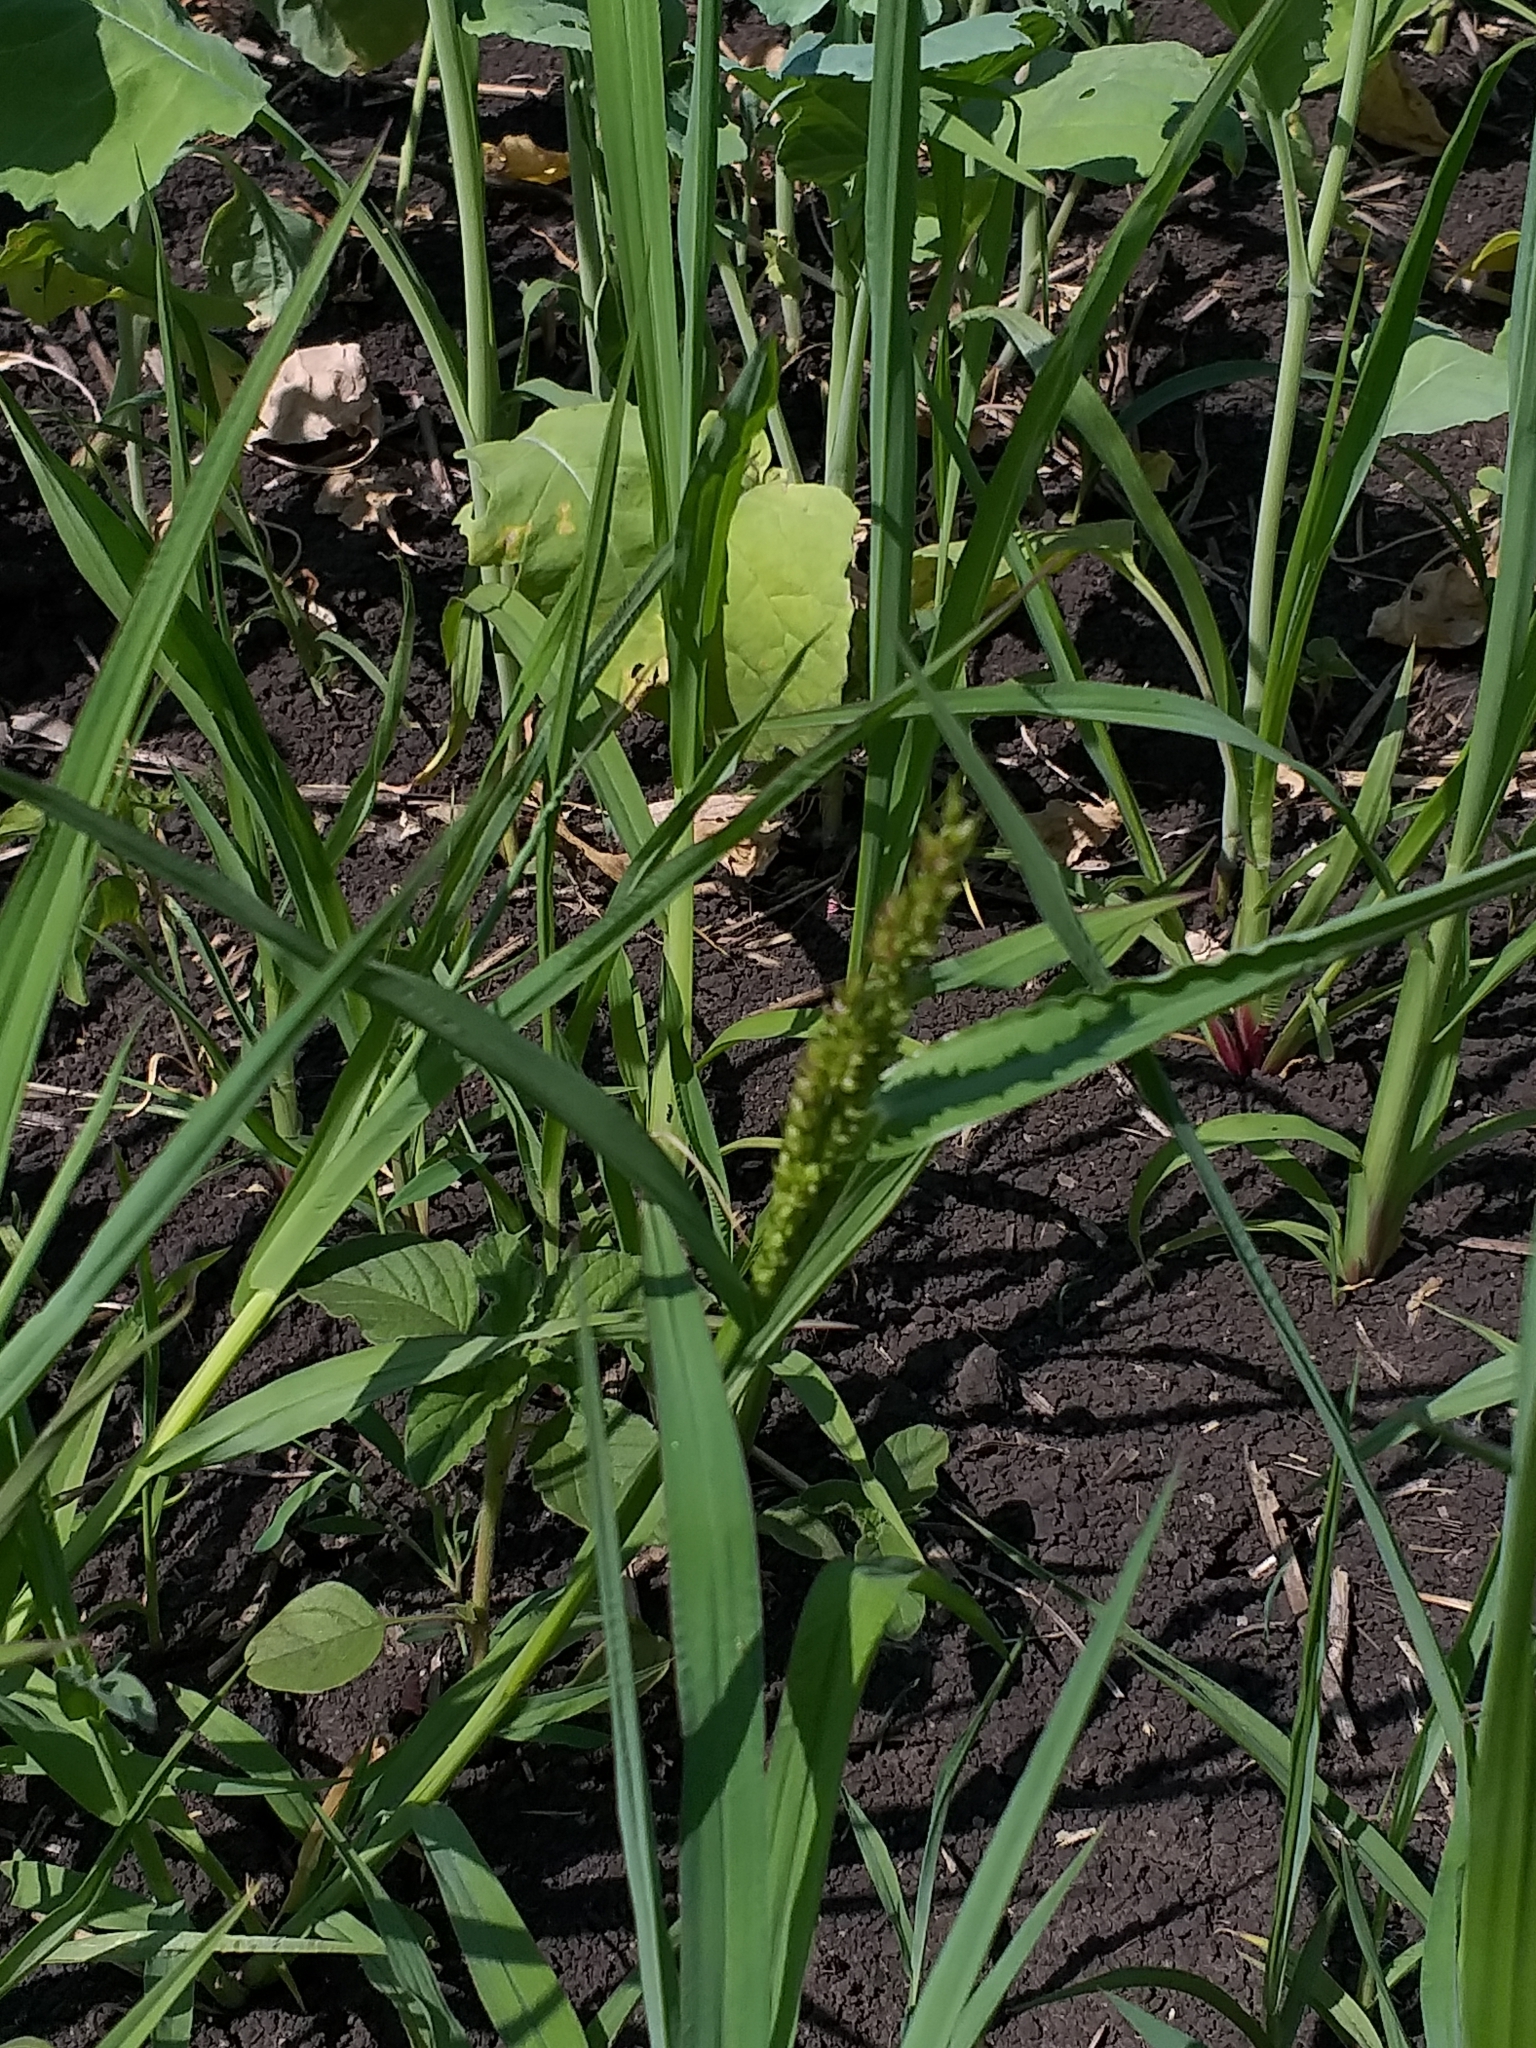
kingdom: Plantae
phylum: Tracheophyta
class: Liliopsida
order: Poales
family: Poaceae
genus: Echinochloa
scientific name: Echinochloa crus-galli
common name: Cockspur
